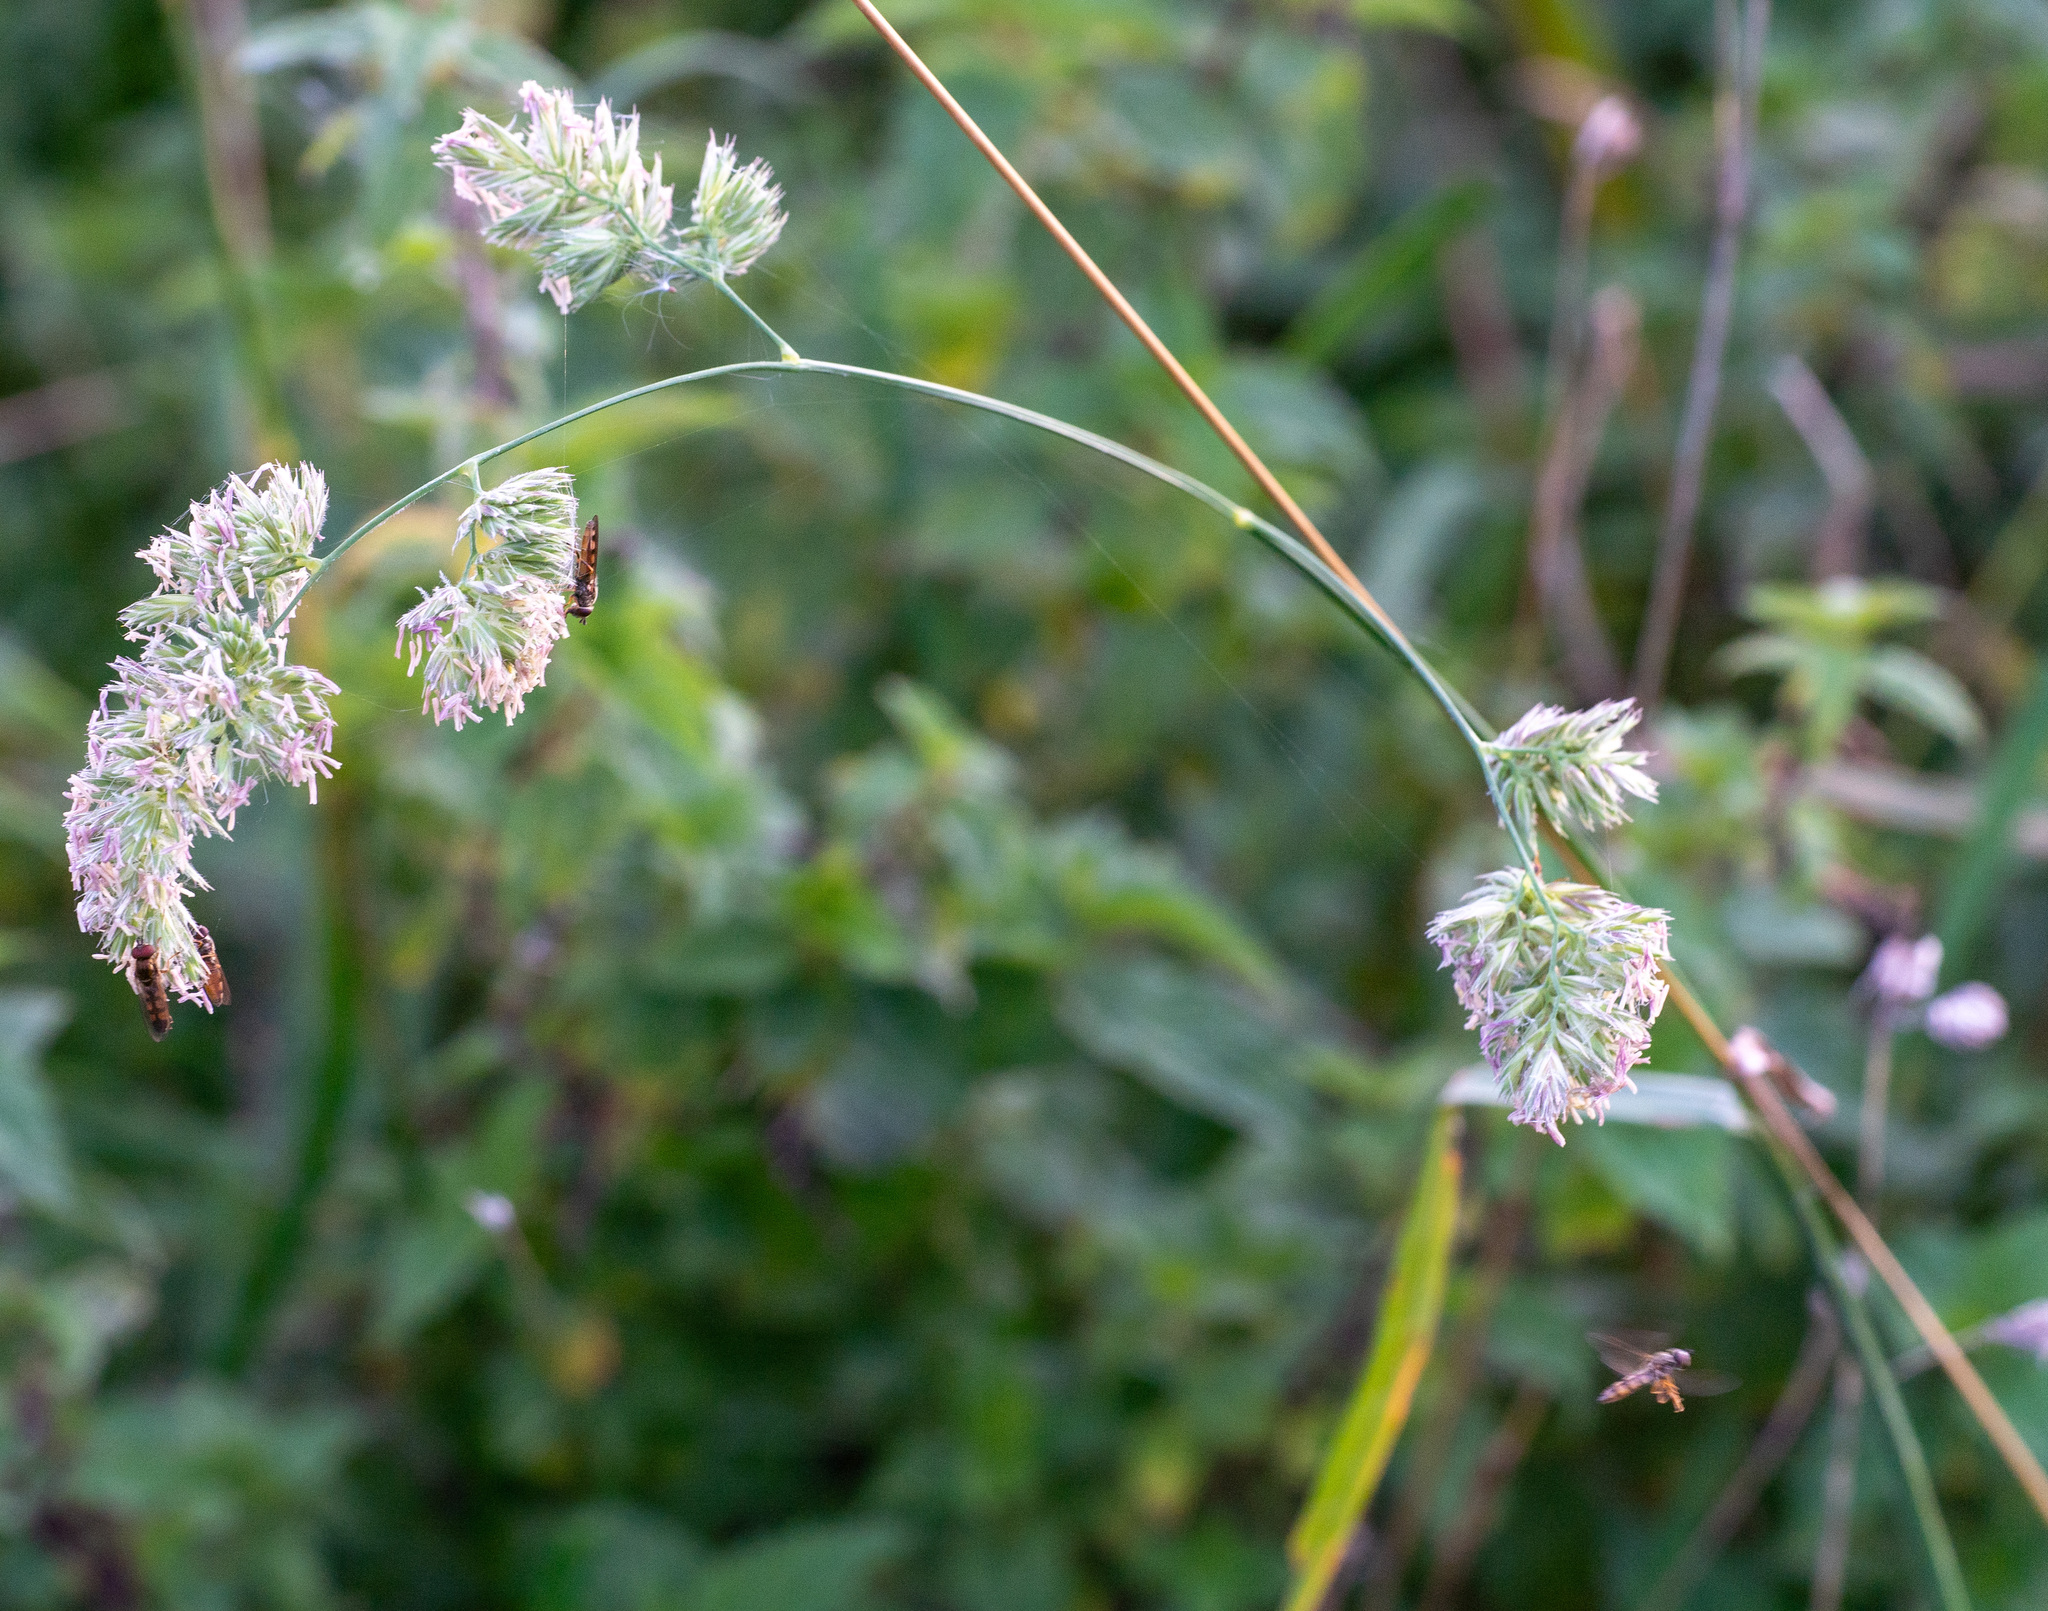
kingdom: Plantae
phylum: Tracheophyta
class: Liliopsida
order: Poales
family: Poaceae
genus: Dactylis
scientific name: Dactylis glomerata
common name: Orchardgrass
